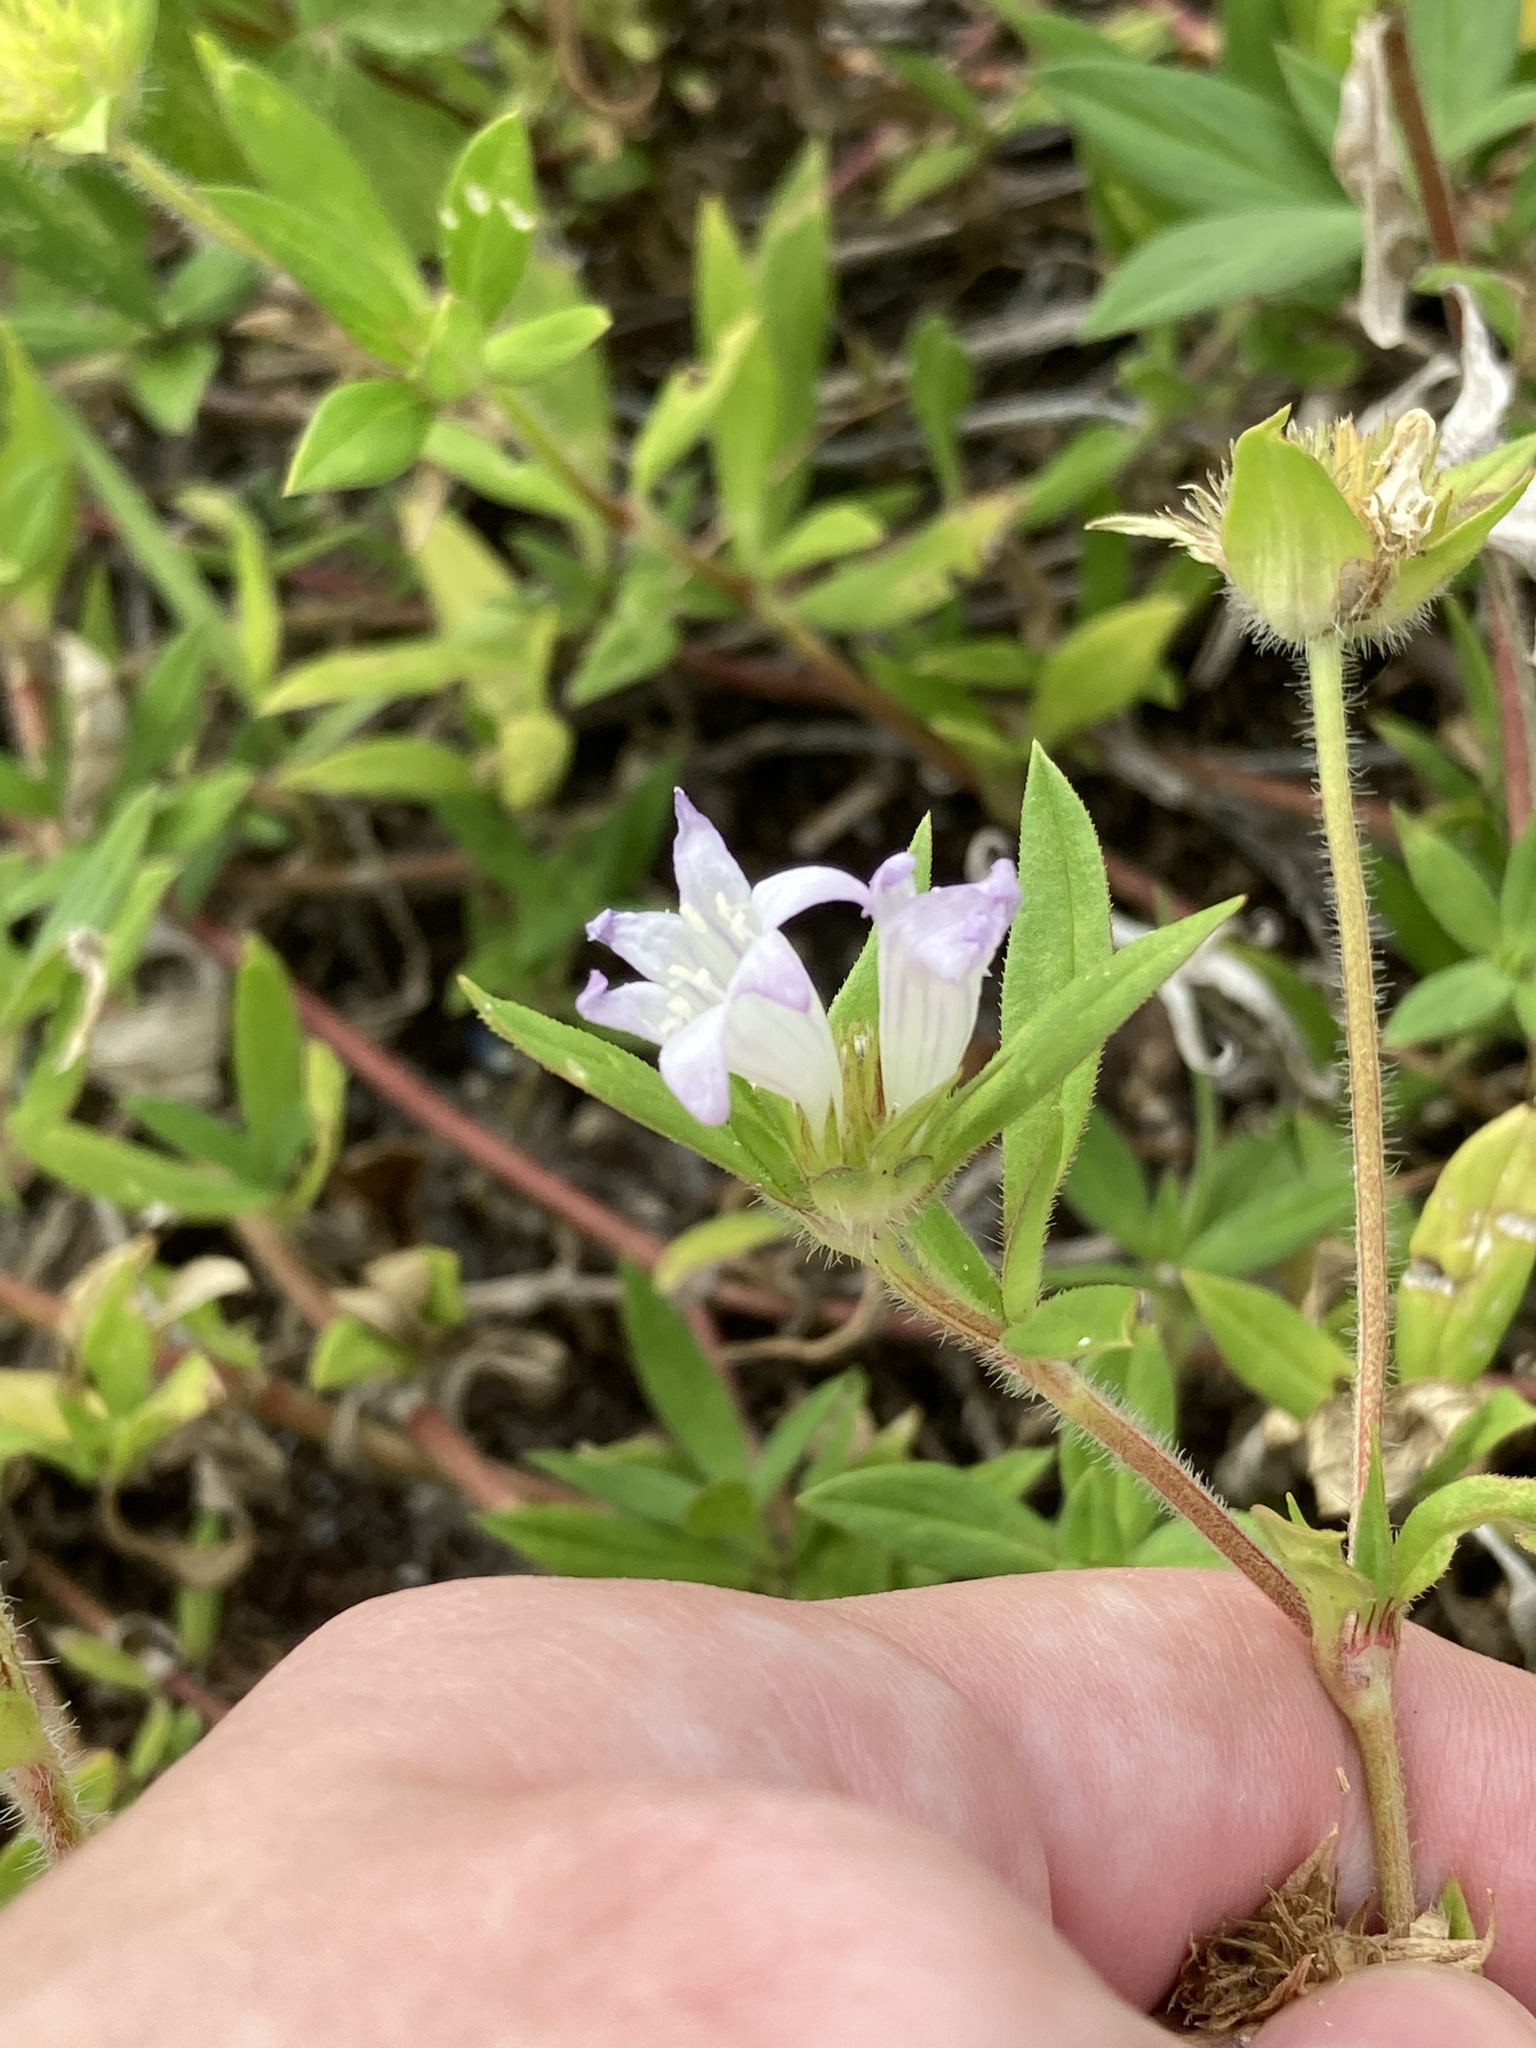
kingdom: Plantae
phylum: Tracheophyta
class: Magnoliopsida
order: Gentianales
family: Rubiaceae
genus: Richardia
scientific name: Richardia grandiflora
